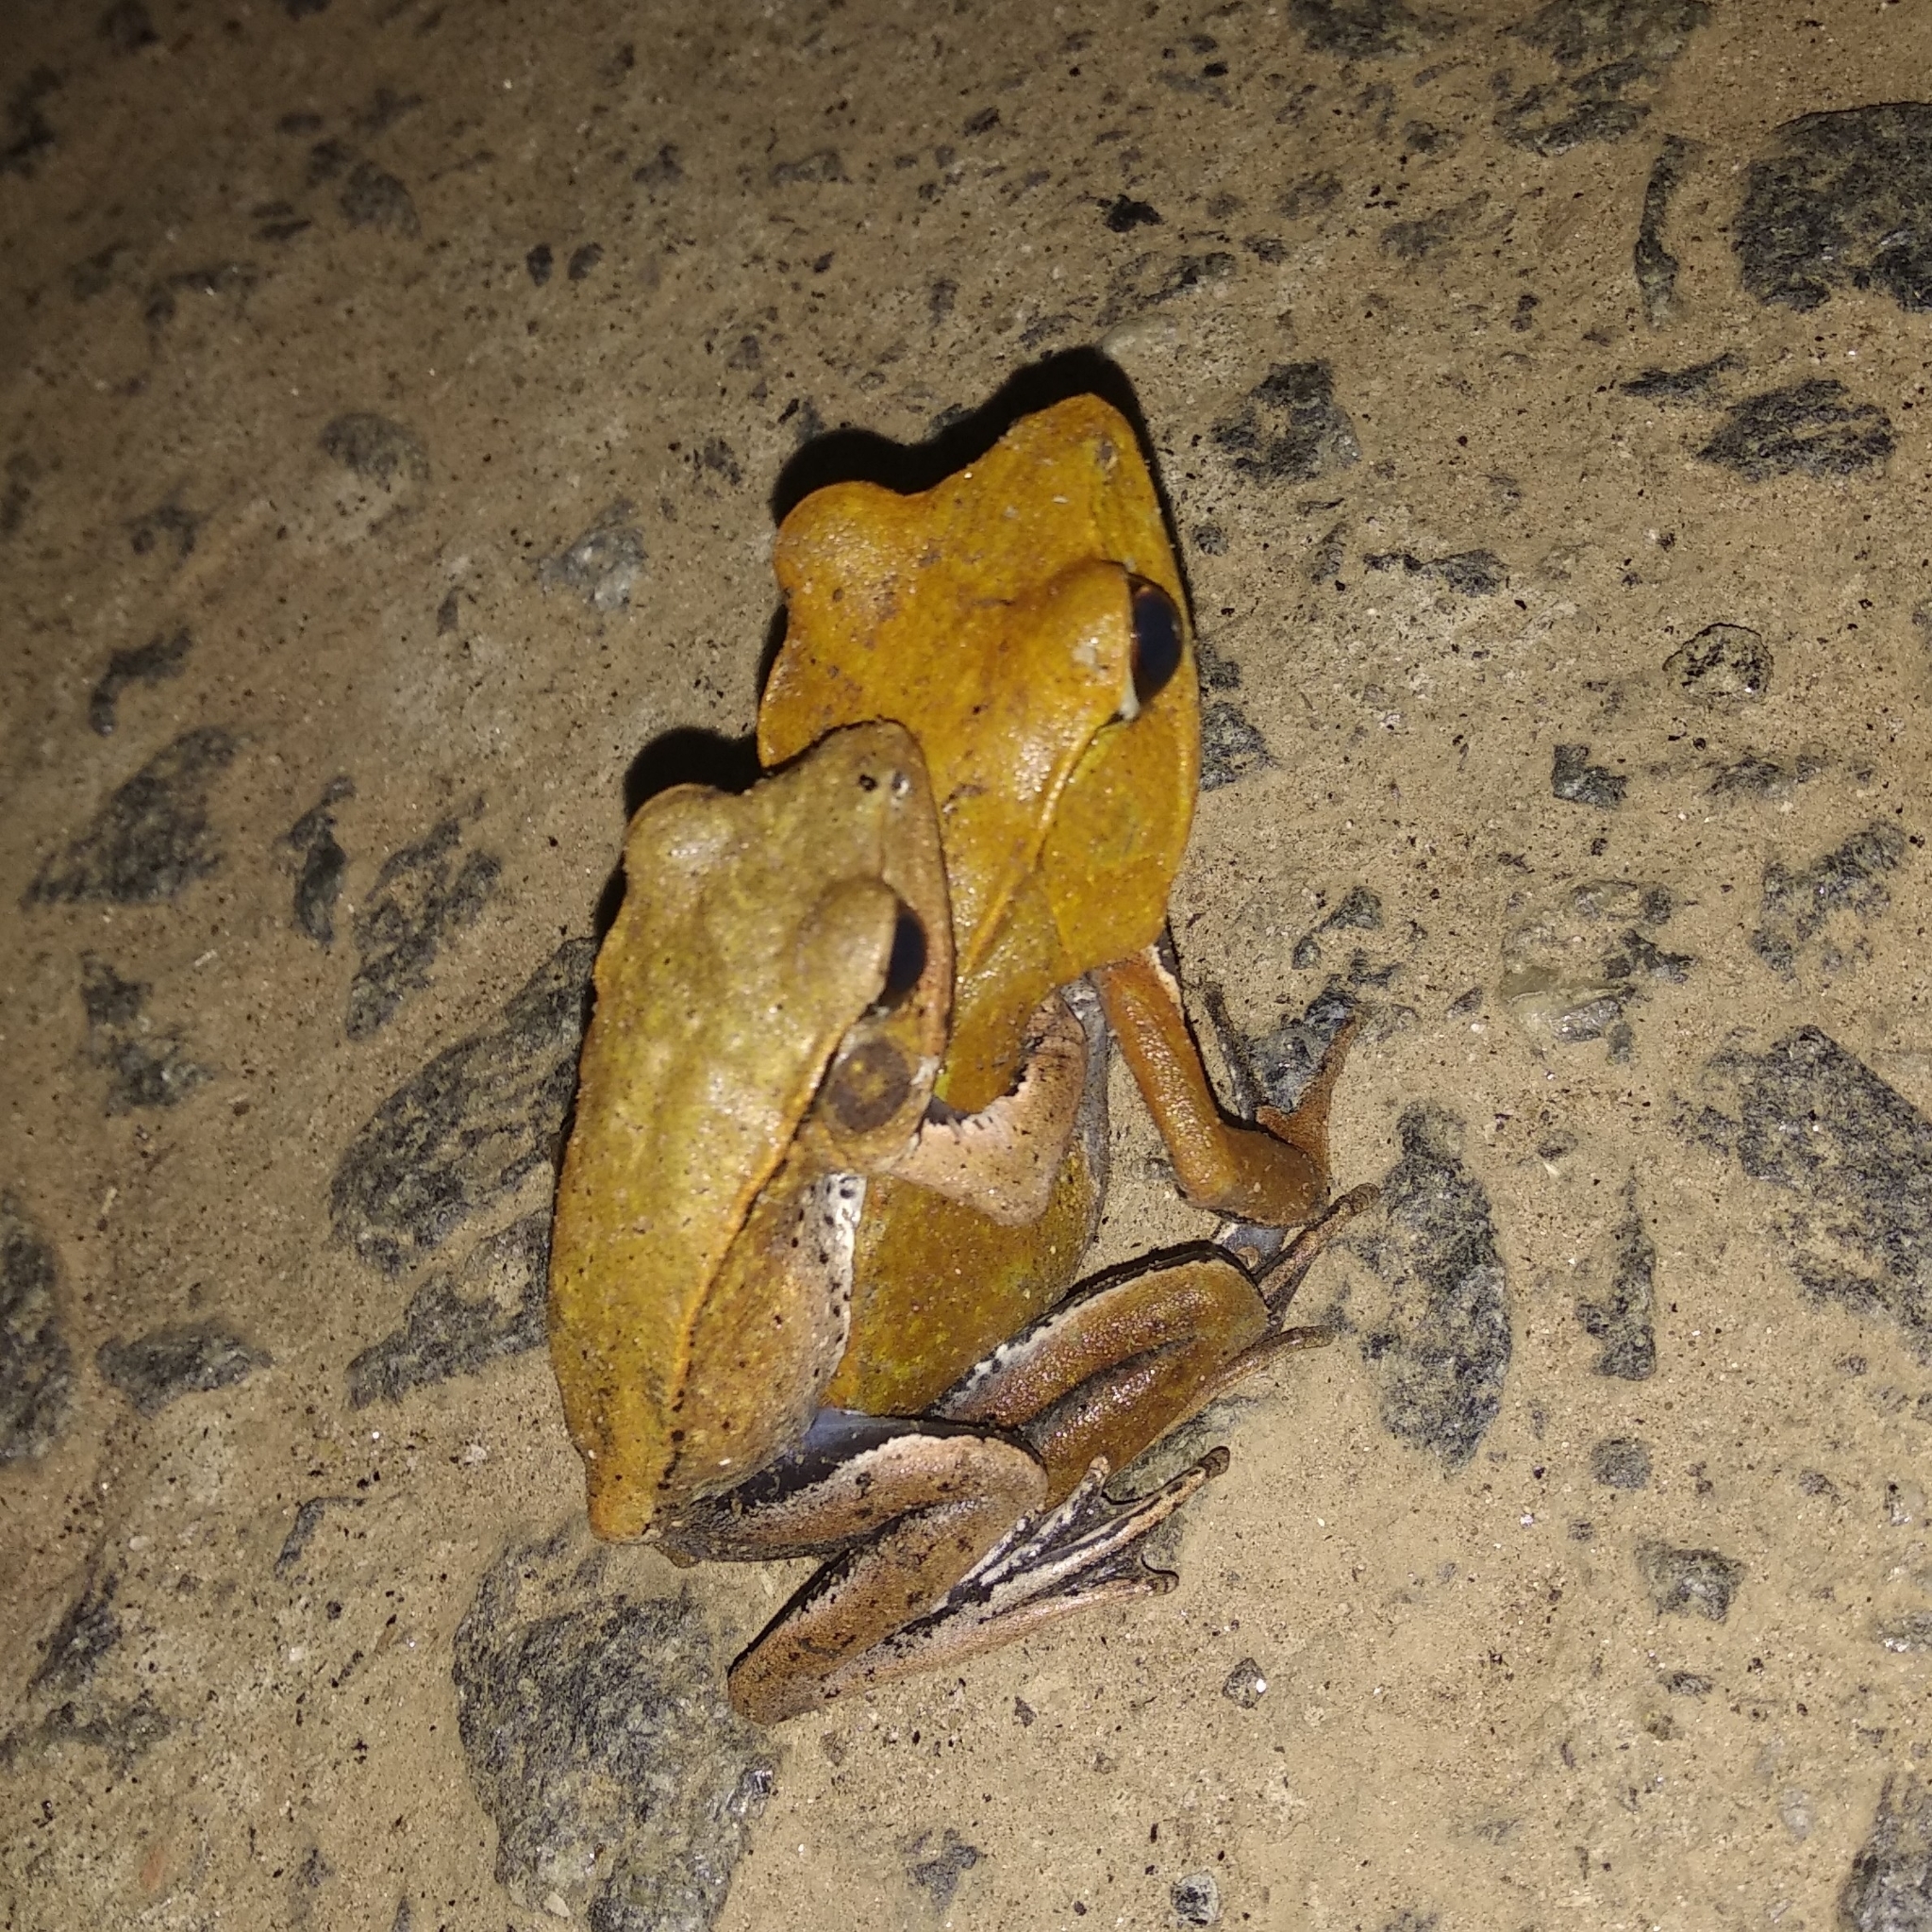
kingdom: Animalia
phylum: Chordata
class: Amphibia
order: Anura
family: Ranidae
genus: Clinotarsus
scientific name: Clinotarsus curtipes
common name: Bicoloured frog
